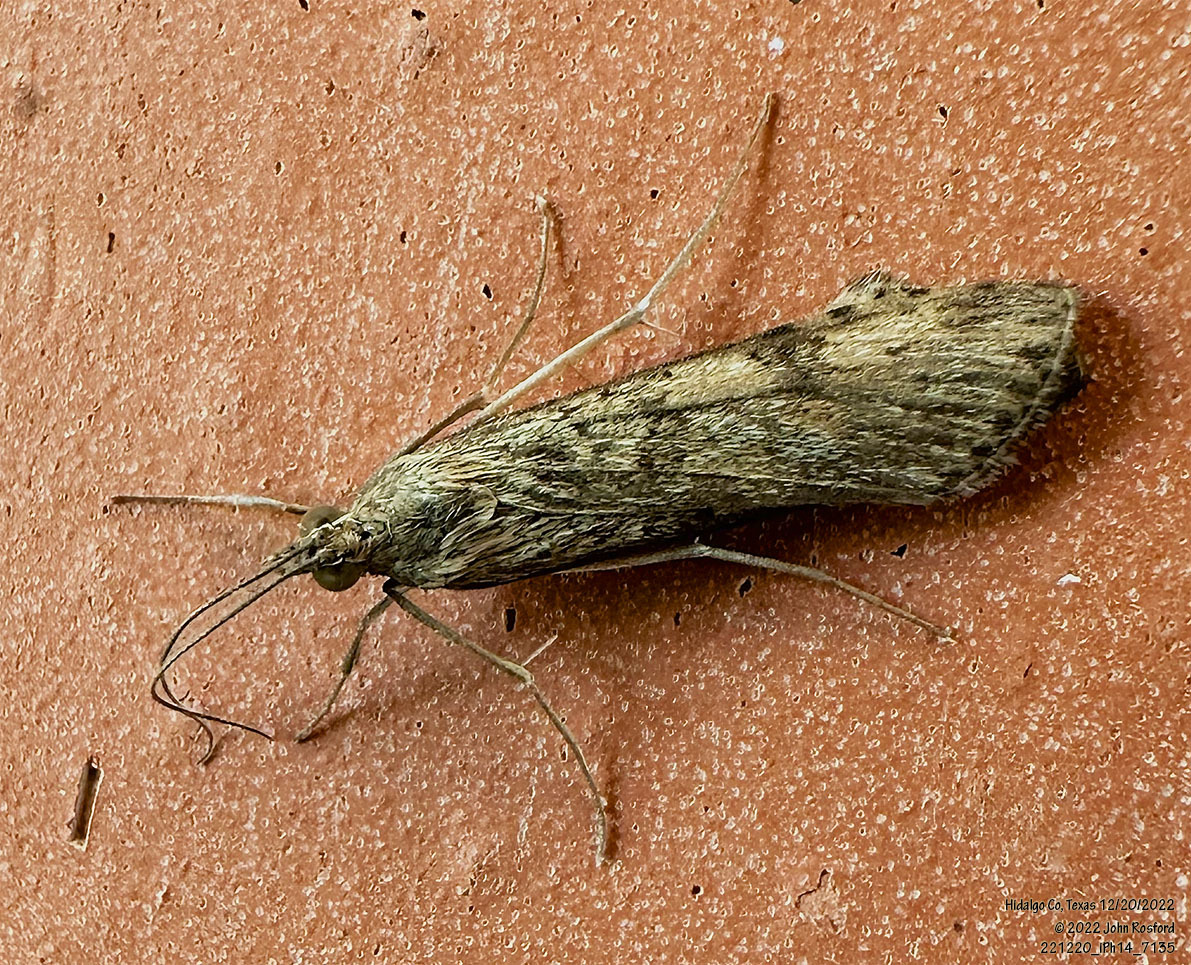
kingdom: Animalia
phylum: Arthropoda
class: Insecta
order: Lepidoptera
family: Crambidae
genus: Nomophila
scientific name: Nomophila nearctica
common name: American rush veneer
